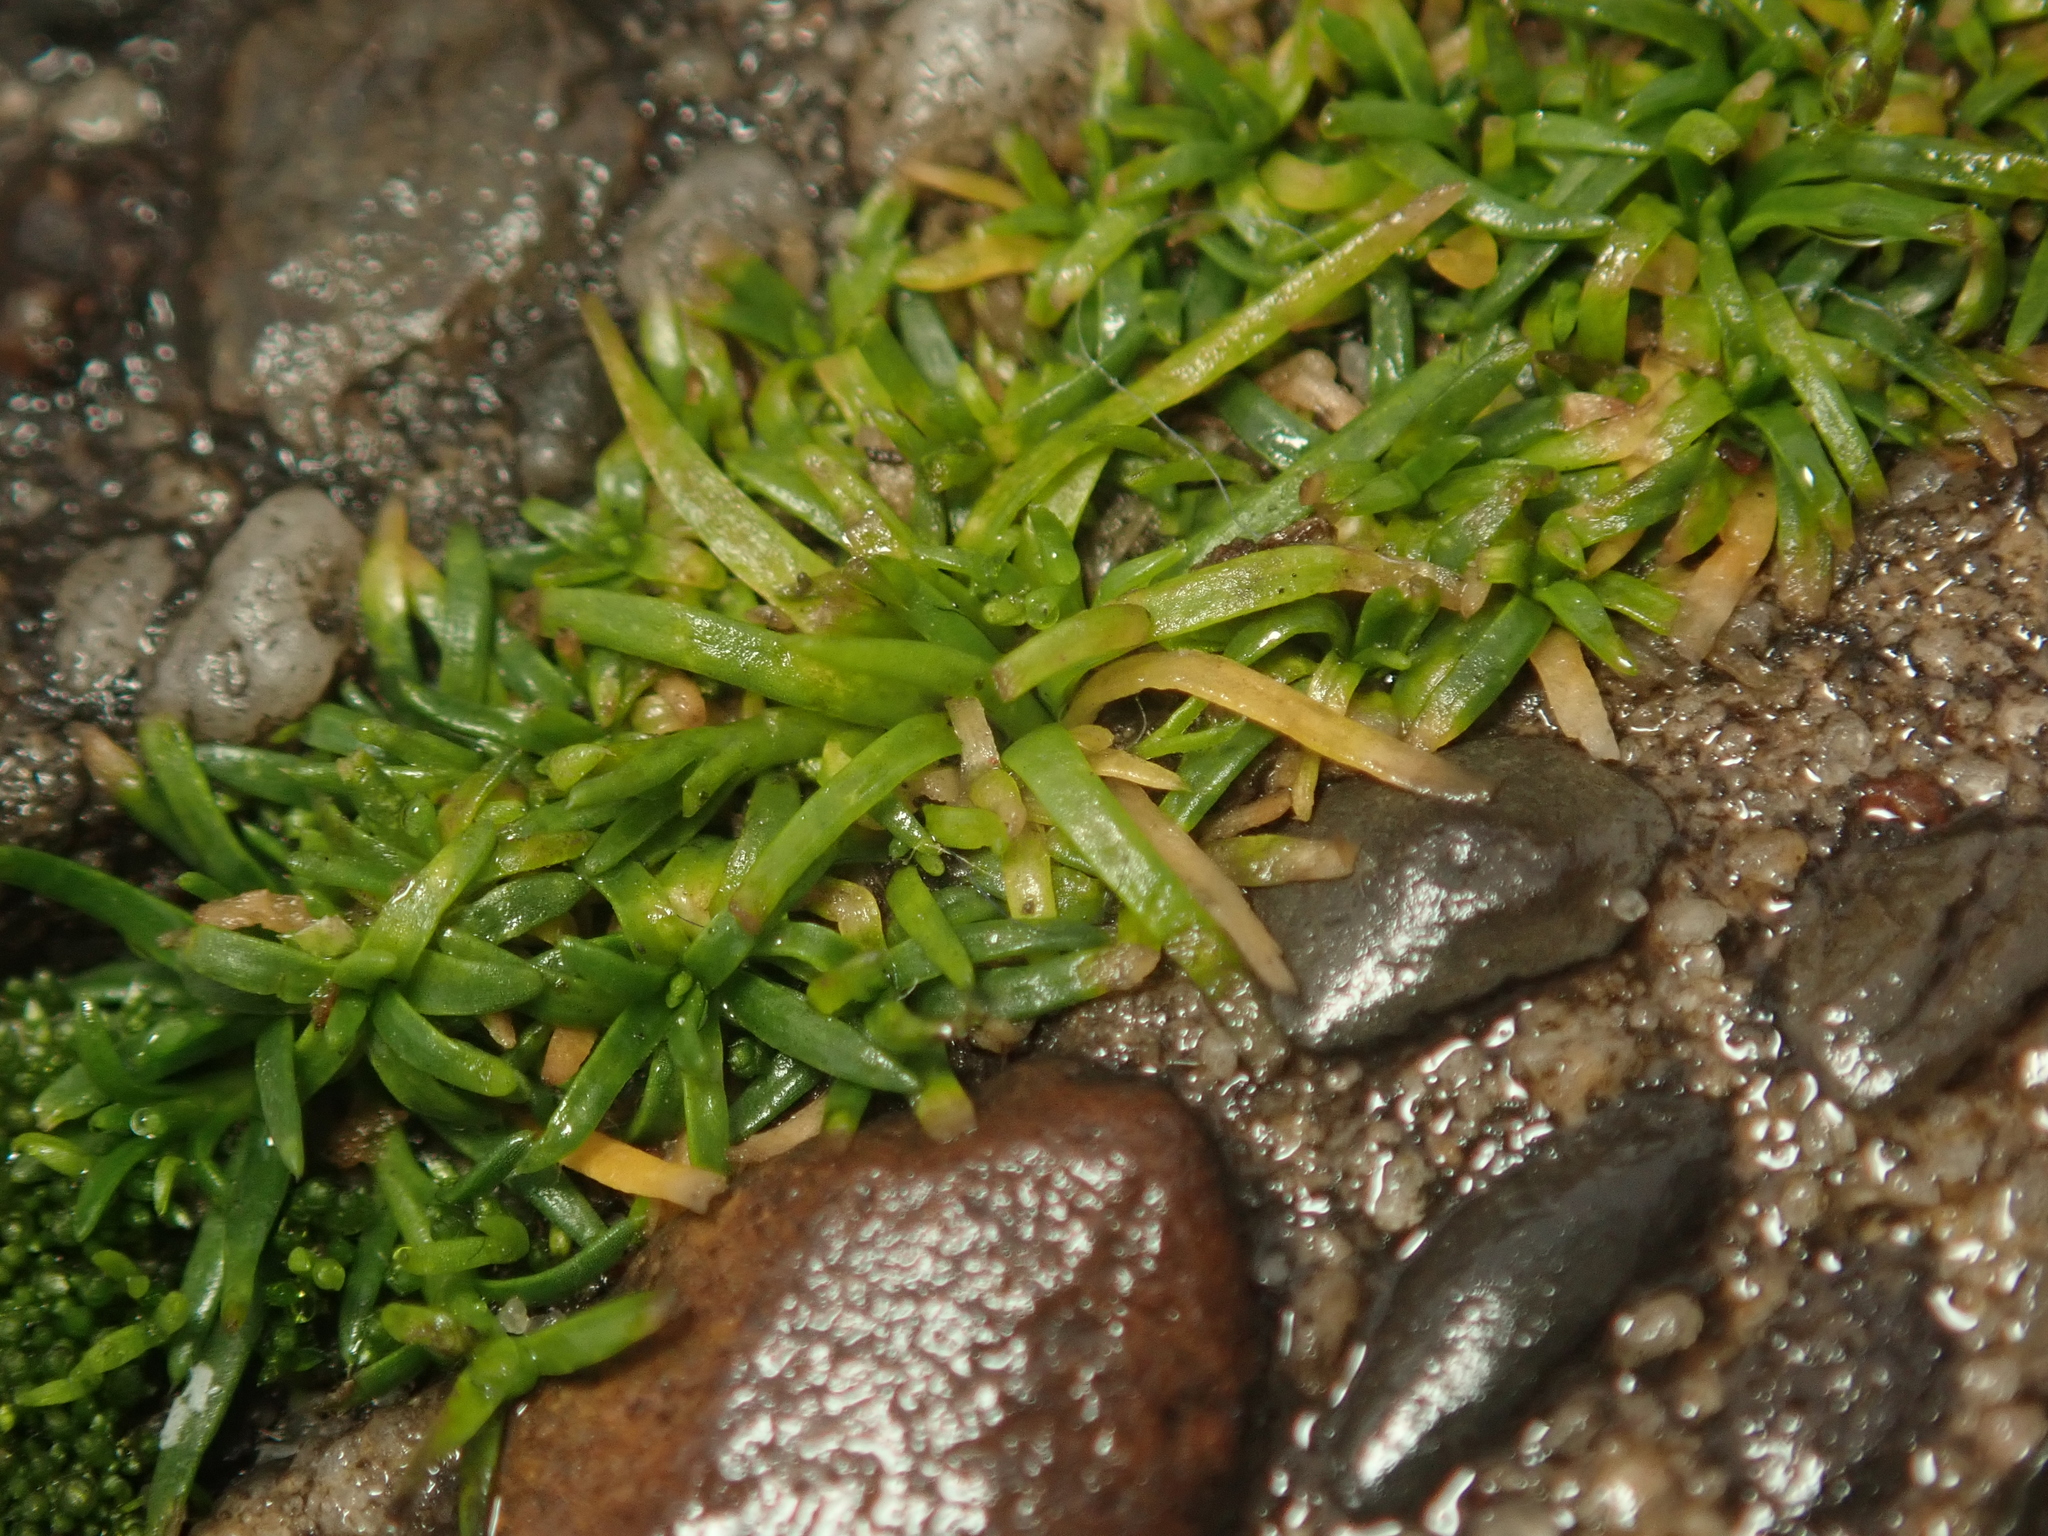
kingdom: Plantae
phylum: Tracheophyta
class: Magnoliopsida
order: Caryophyllales
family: Caryophyllaceae
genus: Sagina
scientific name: Sagina procumbens
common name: Procumbent pearlwort
